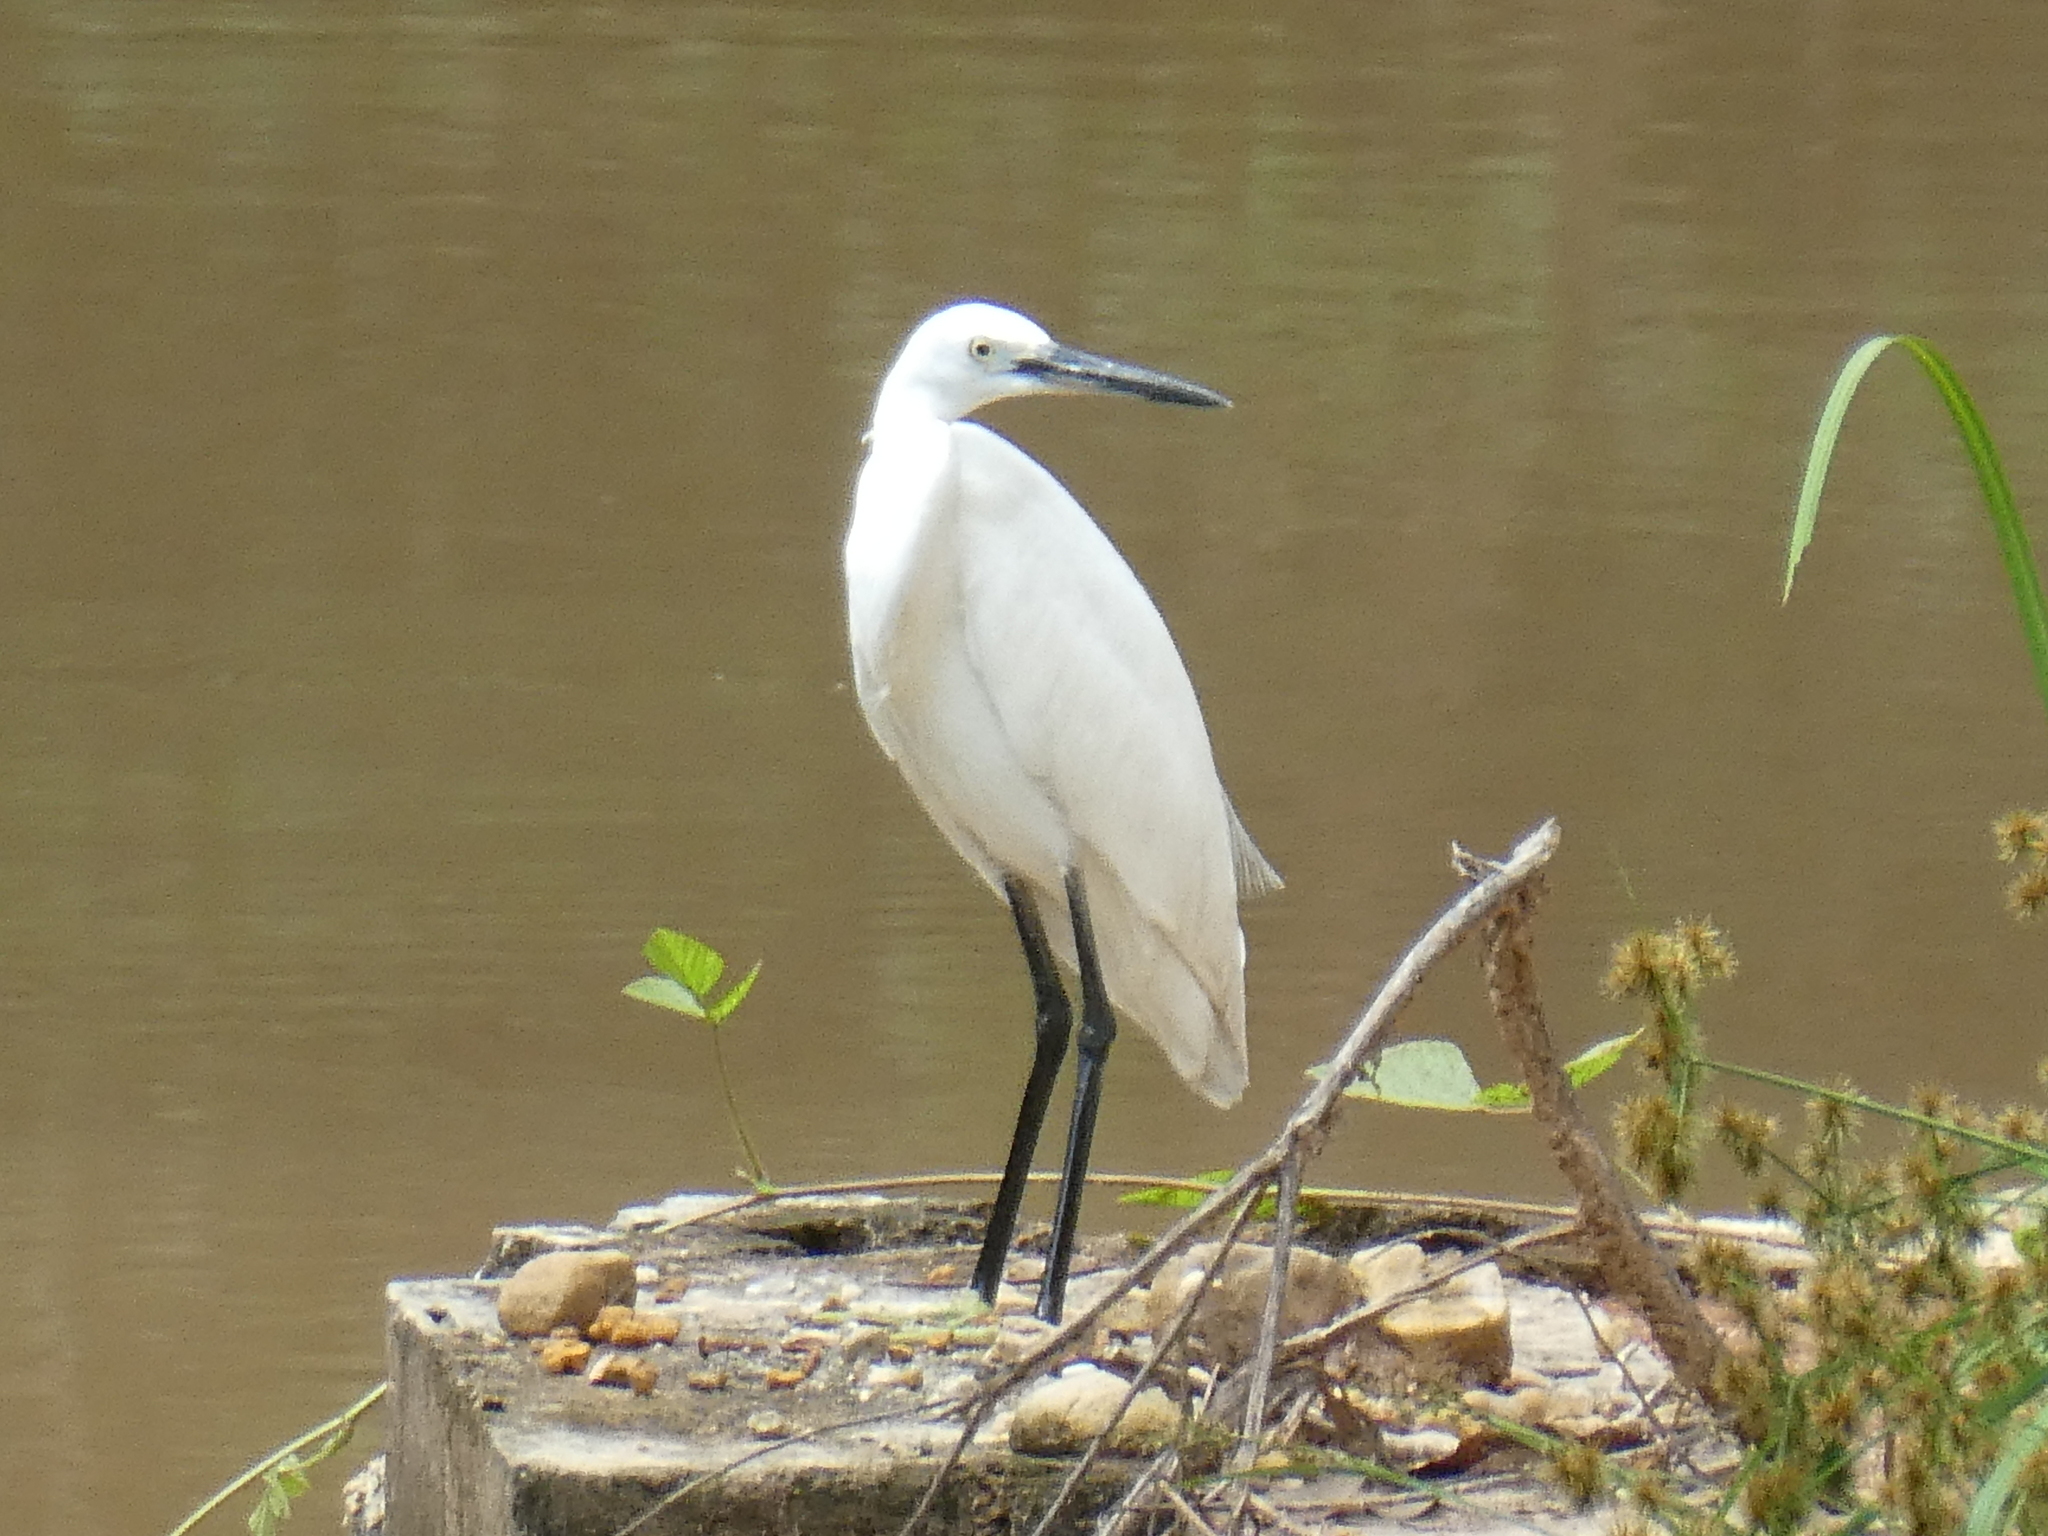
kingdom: Animalia
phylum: Chordata
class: Aves
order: Pelecaniformes
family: Ardeidae
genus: Egretta
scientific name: Egretta garzetta
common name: Little egret
